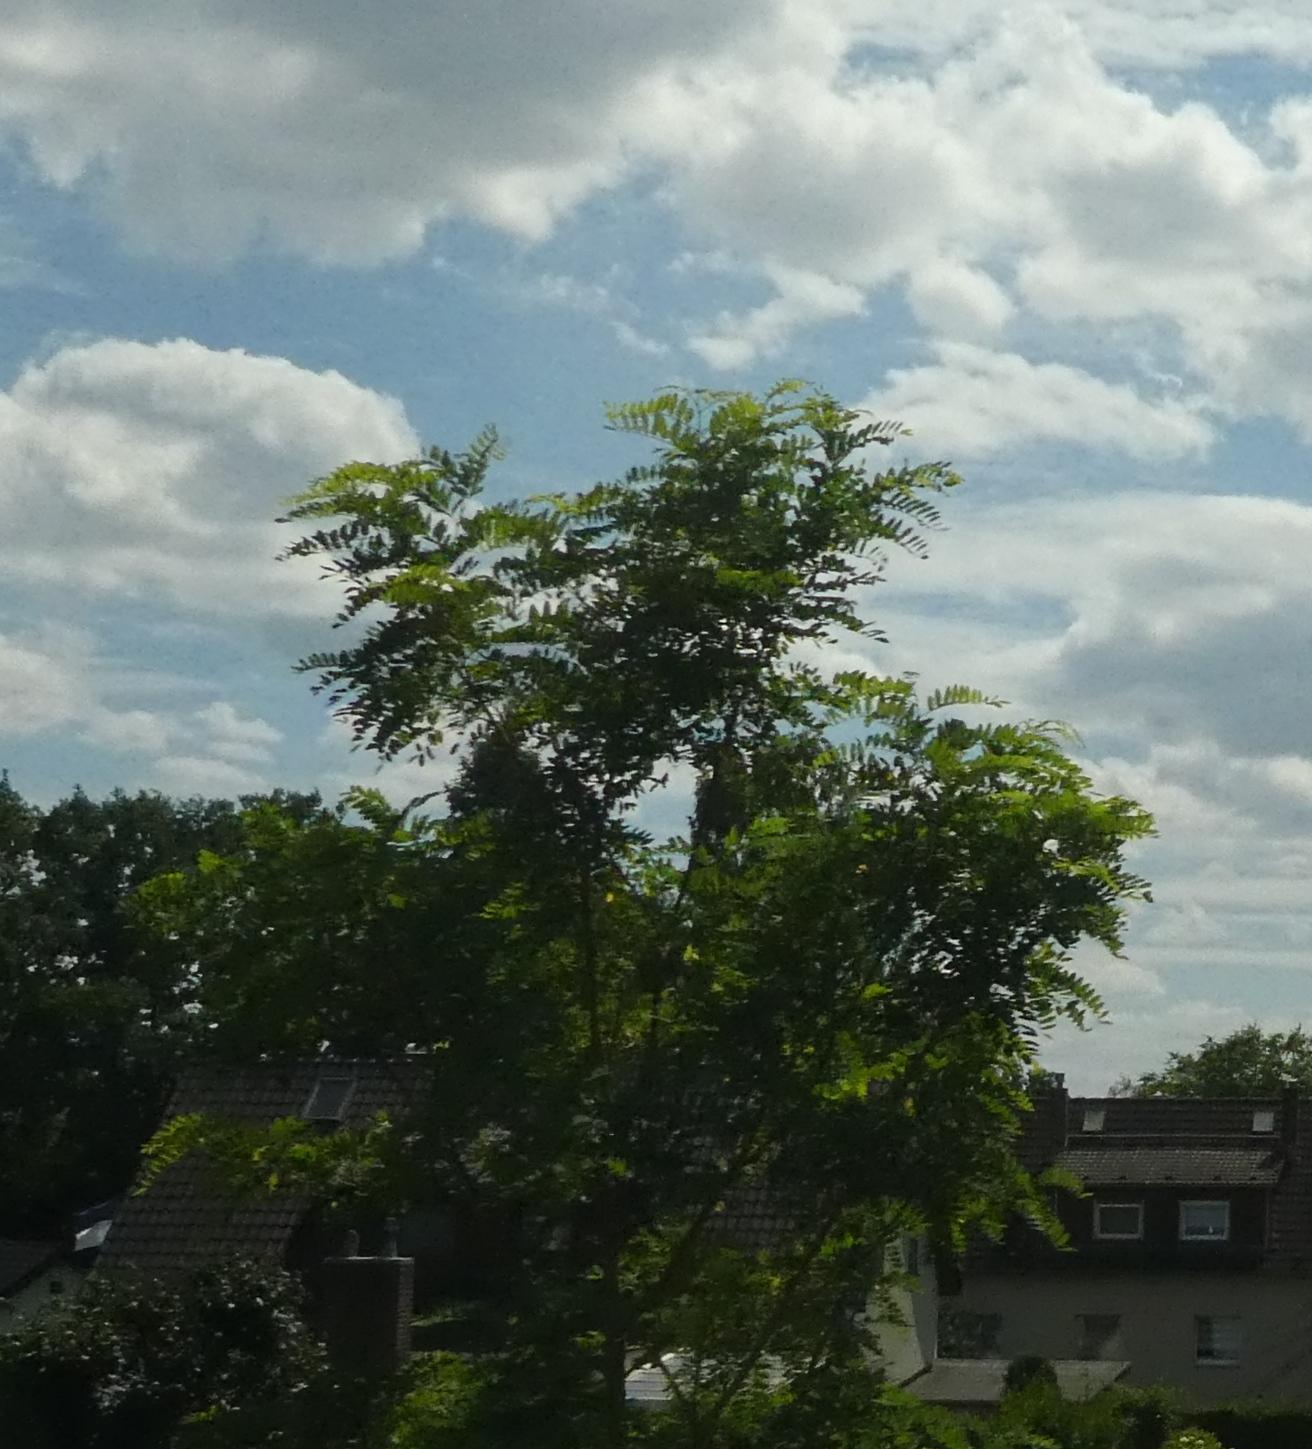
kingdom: Plantae
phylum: Tracheophyta
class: Magnoliopsida
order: Fabales
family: Fabaceae
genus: Robinia
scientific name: Robinia pseudoacacia
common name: Black locust
